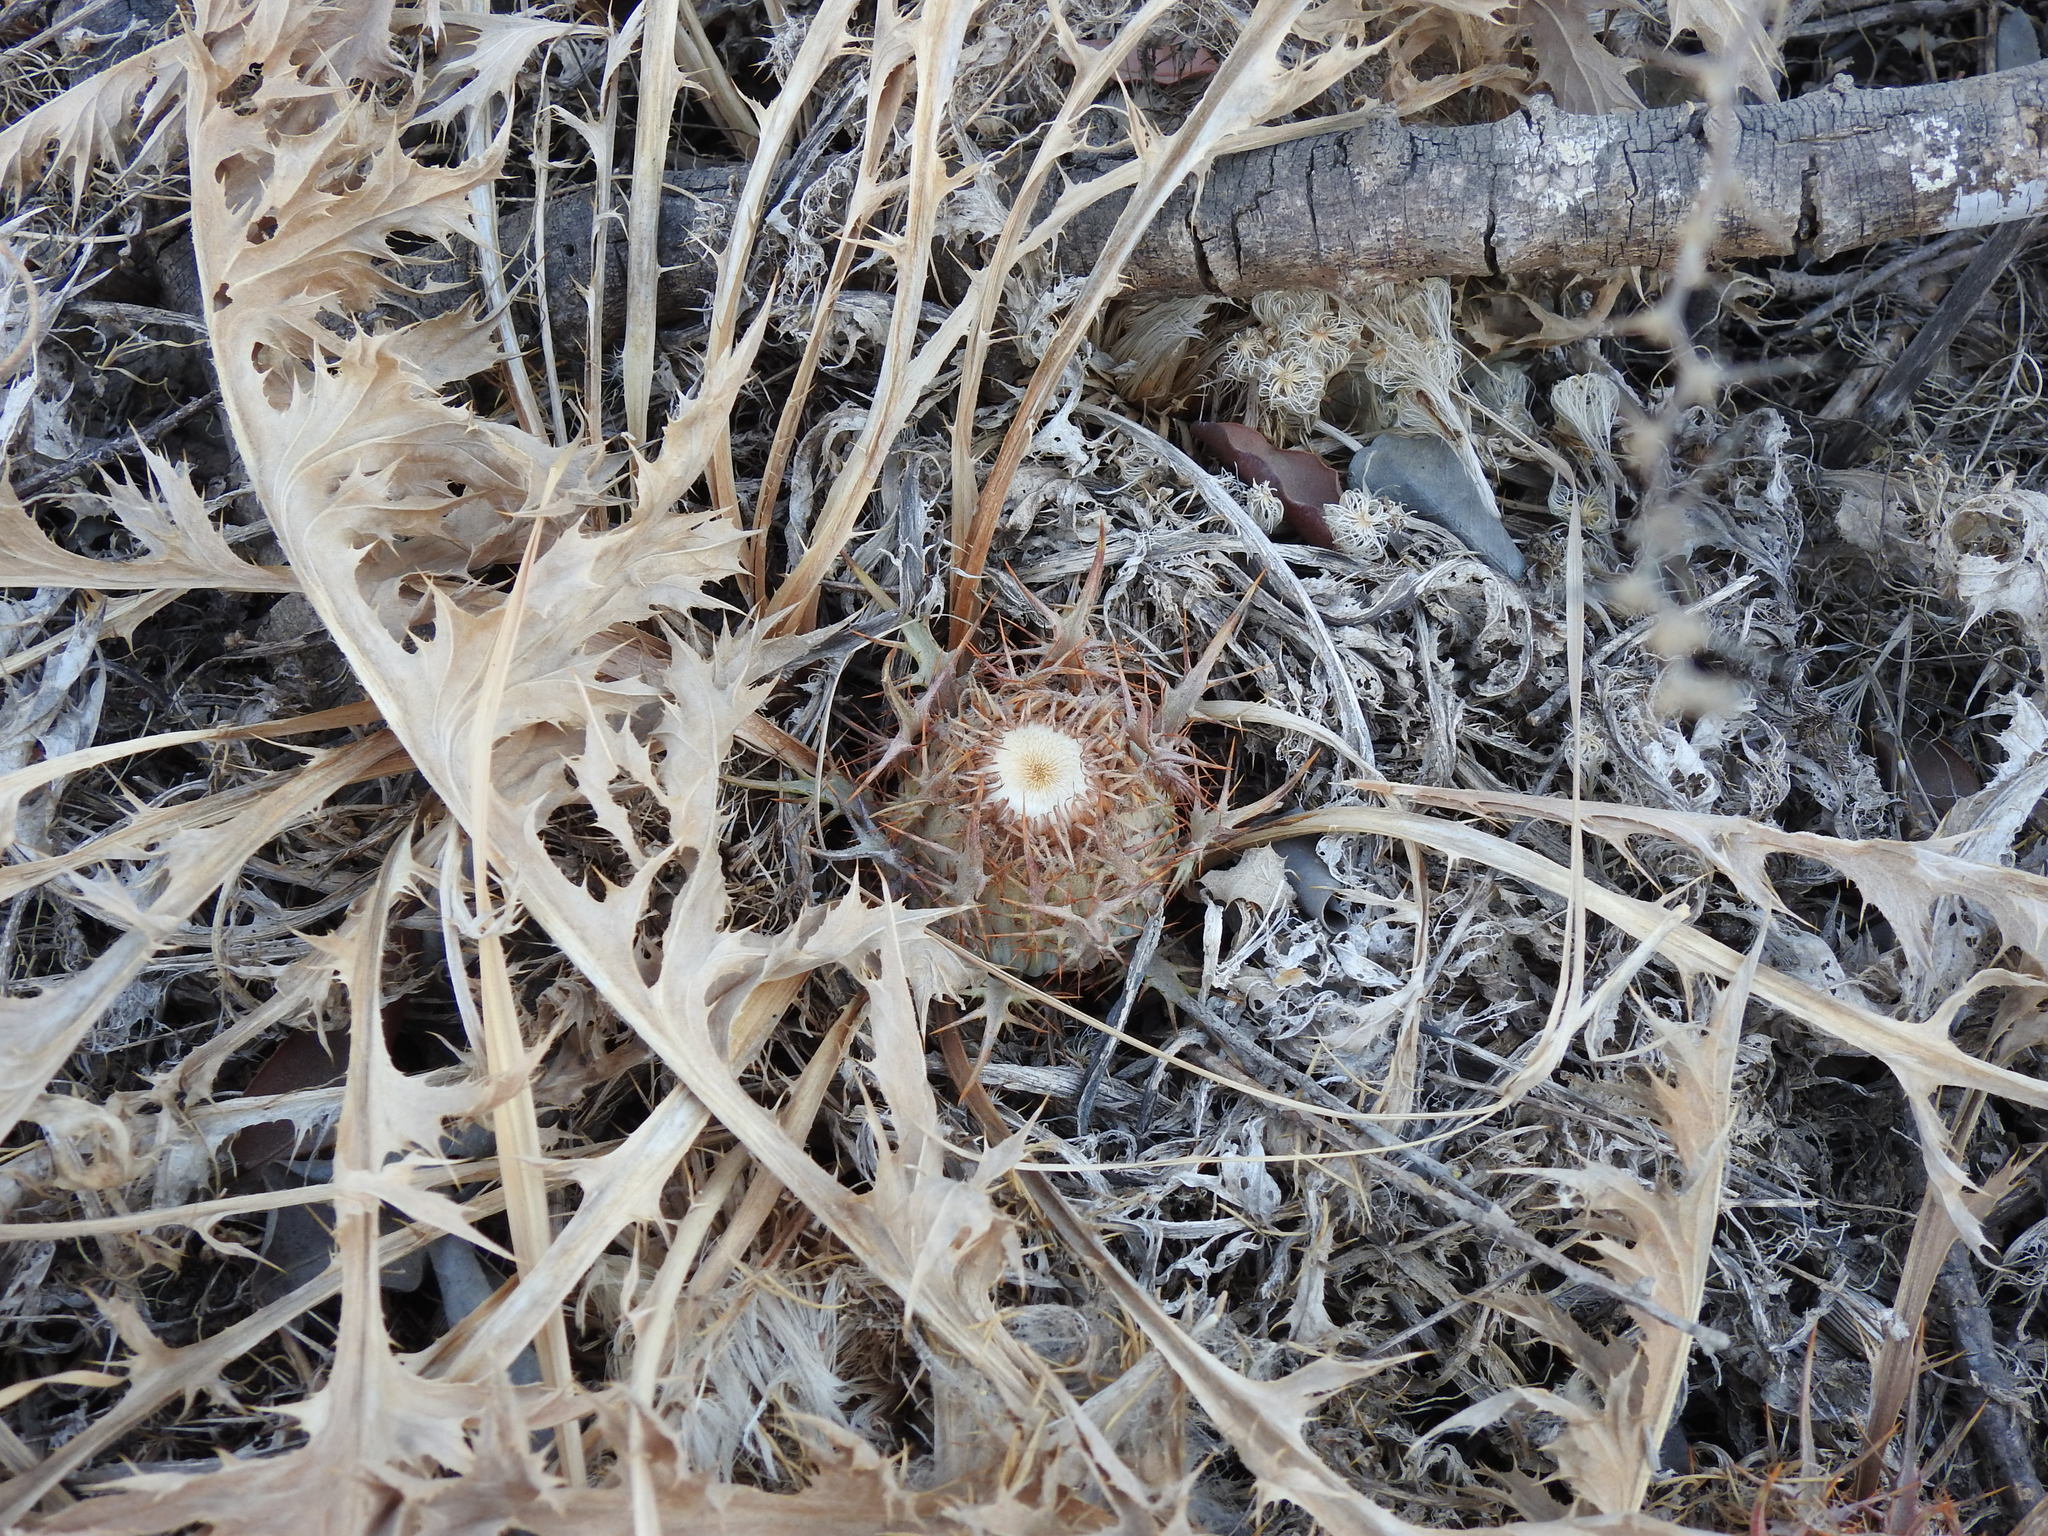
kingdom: Plantae
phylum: Tracheophyta
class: Magnoliopsida
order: Asterales
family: Asteraceae
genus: Chamaeleon
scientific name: Chamaeleon gummifer
